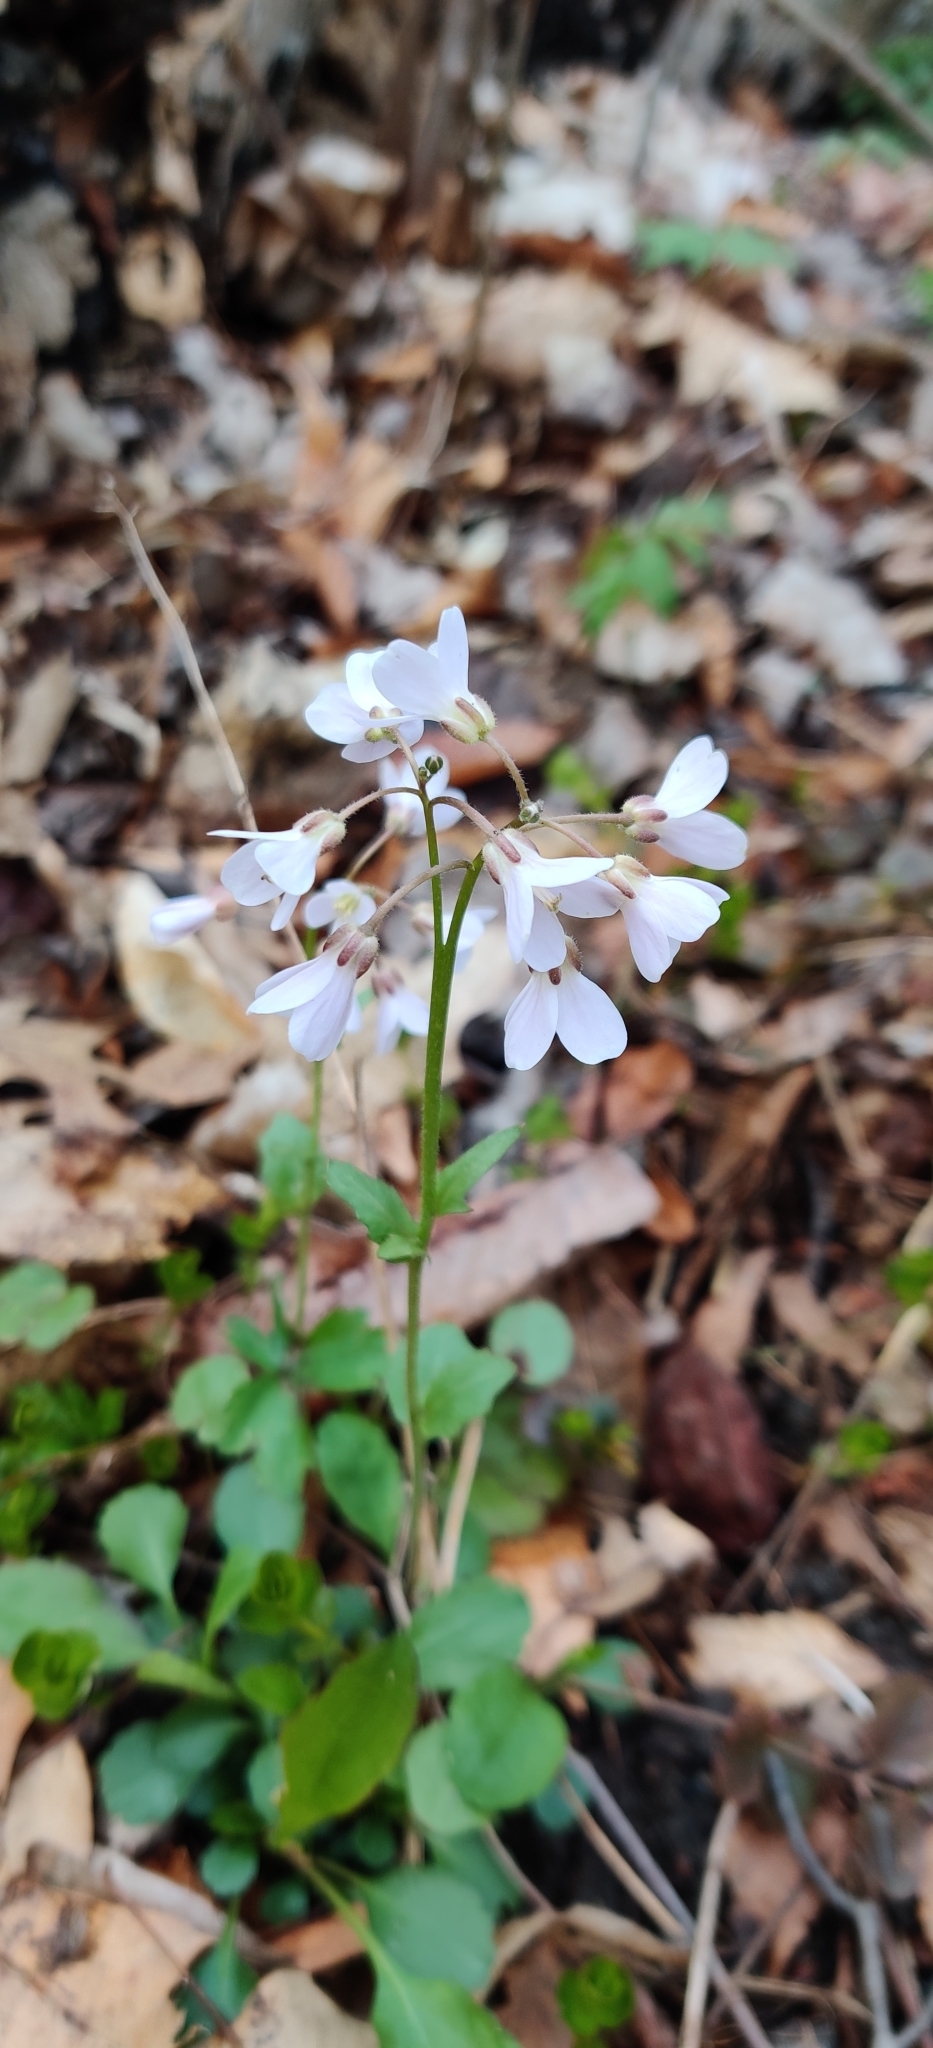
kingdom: Plantae
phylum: Tracheophyta
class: Magnoliopsida
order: Brassicales
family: Brassicaceae
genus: Cardamine
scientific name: Cardamine douglassii
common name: Purple cress
